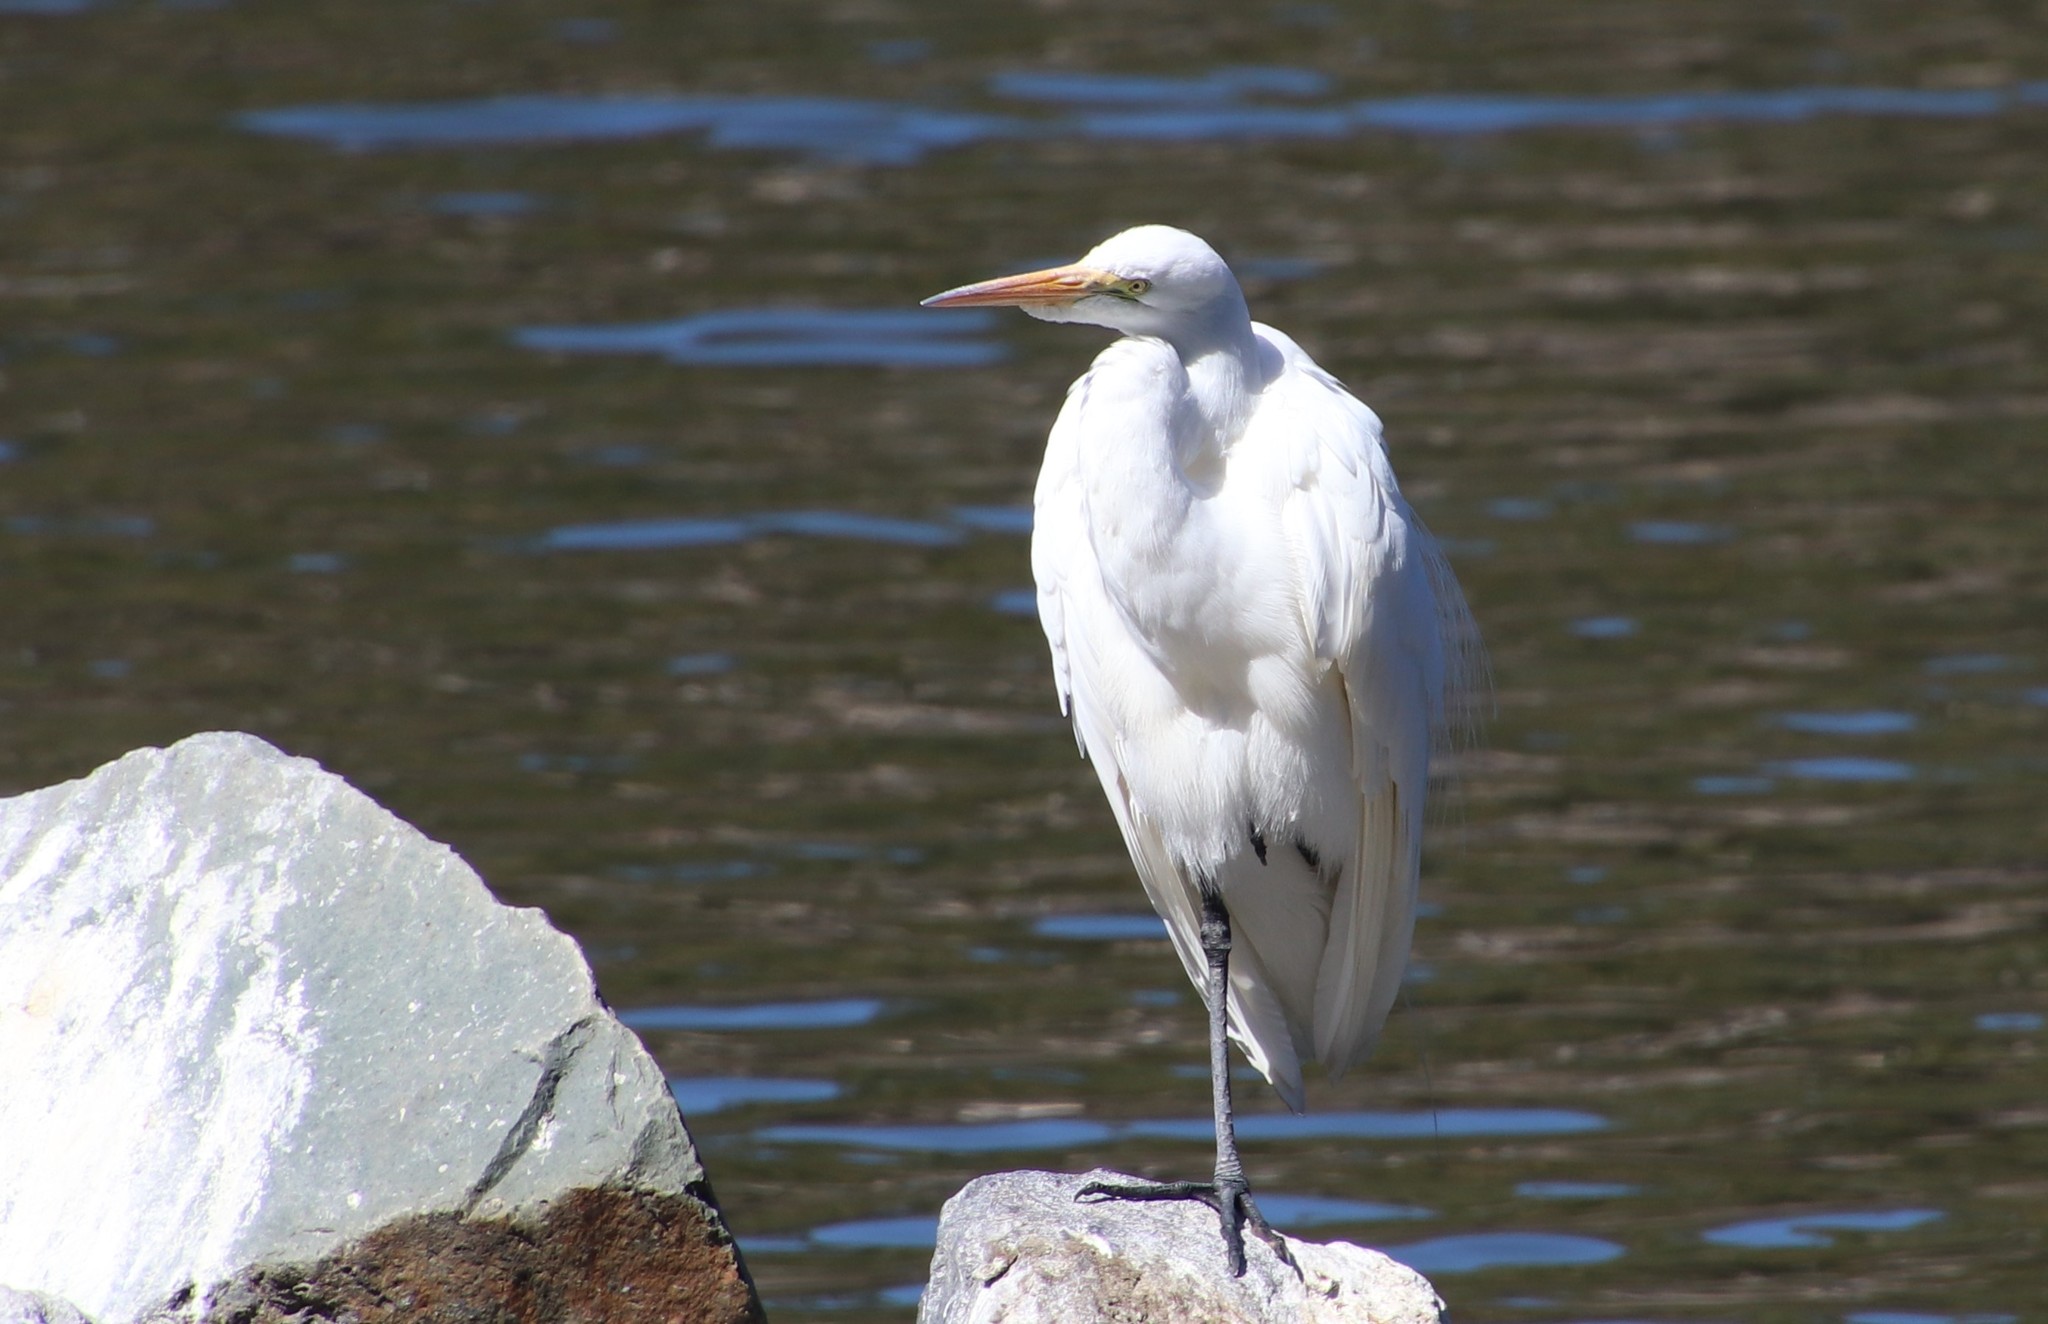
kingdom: Animalia
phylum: Chordata
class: Aves
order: Pelecaniformes
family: Ardeidae
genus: Ardea
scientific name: Ardea alba
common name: Great egret
